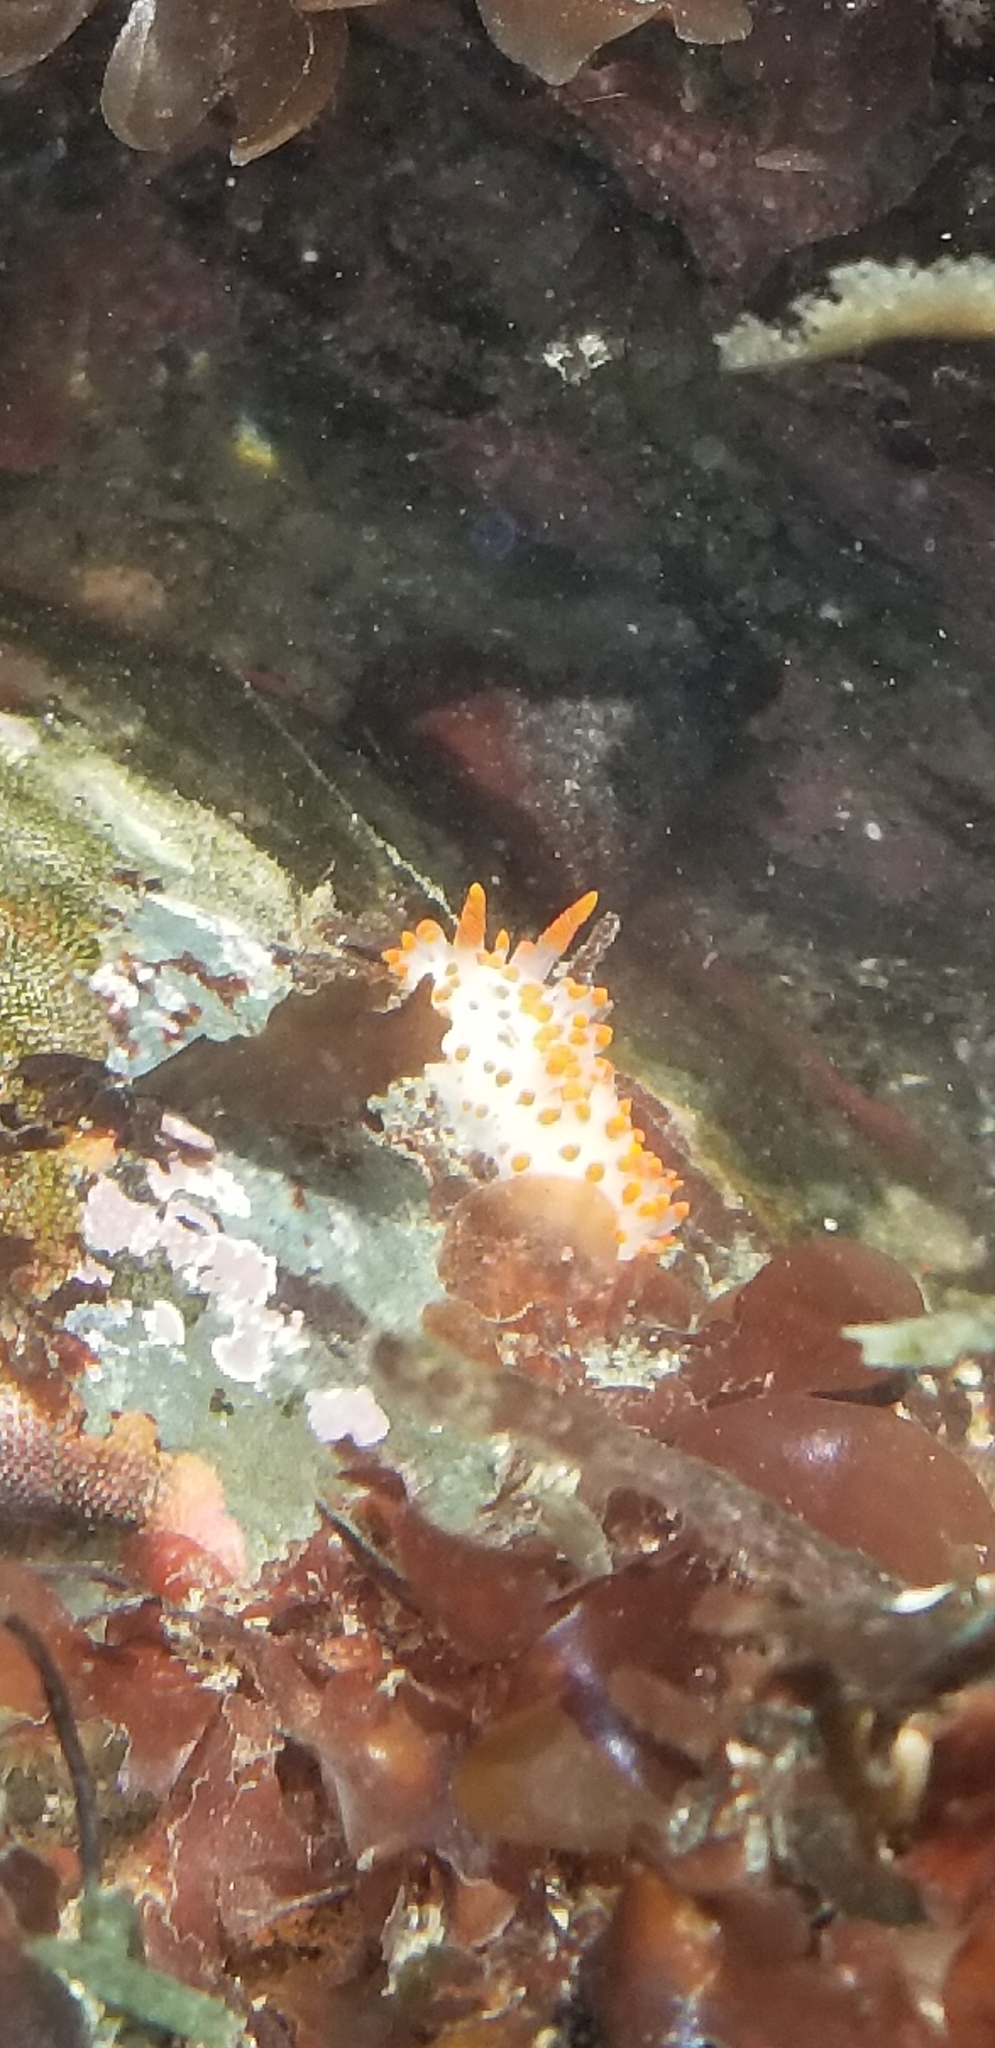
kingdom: Animalia
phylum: Mollusca
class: Gastropoda
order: Nudibranchia
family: Polyceridae
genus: Limacia
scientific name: Limacia mcdonaldi
